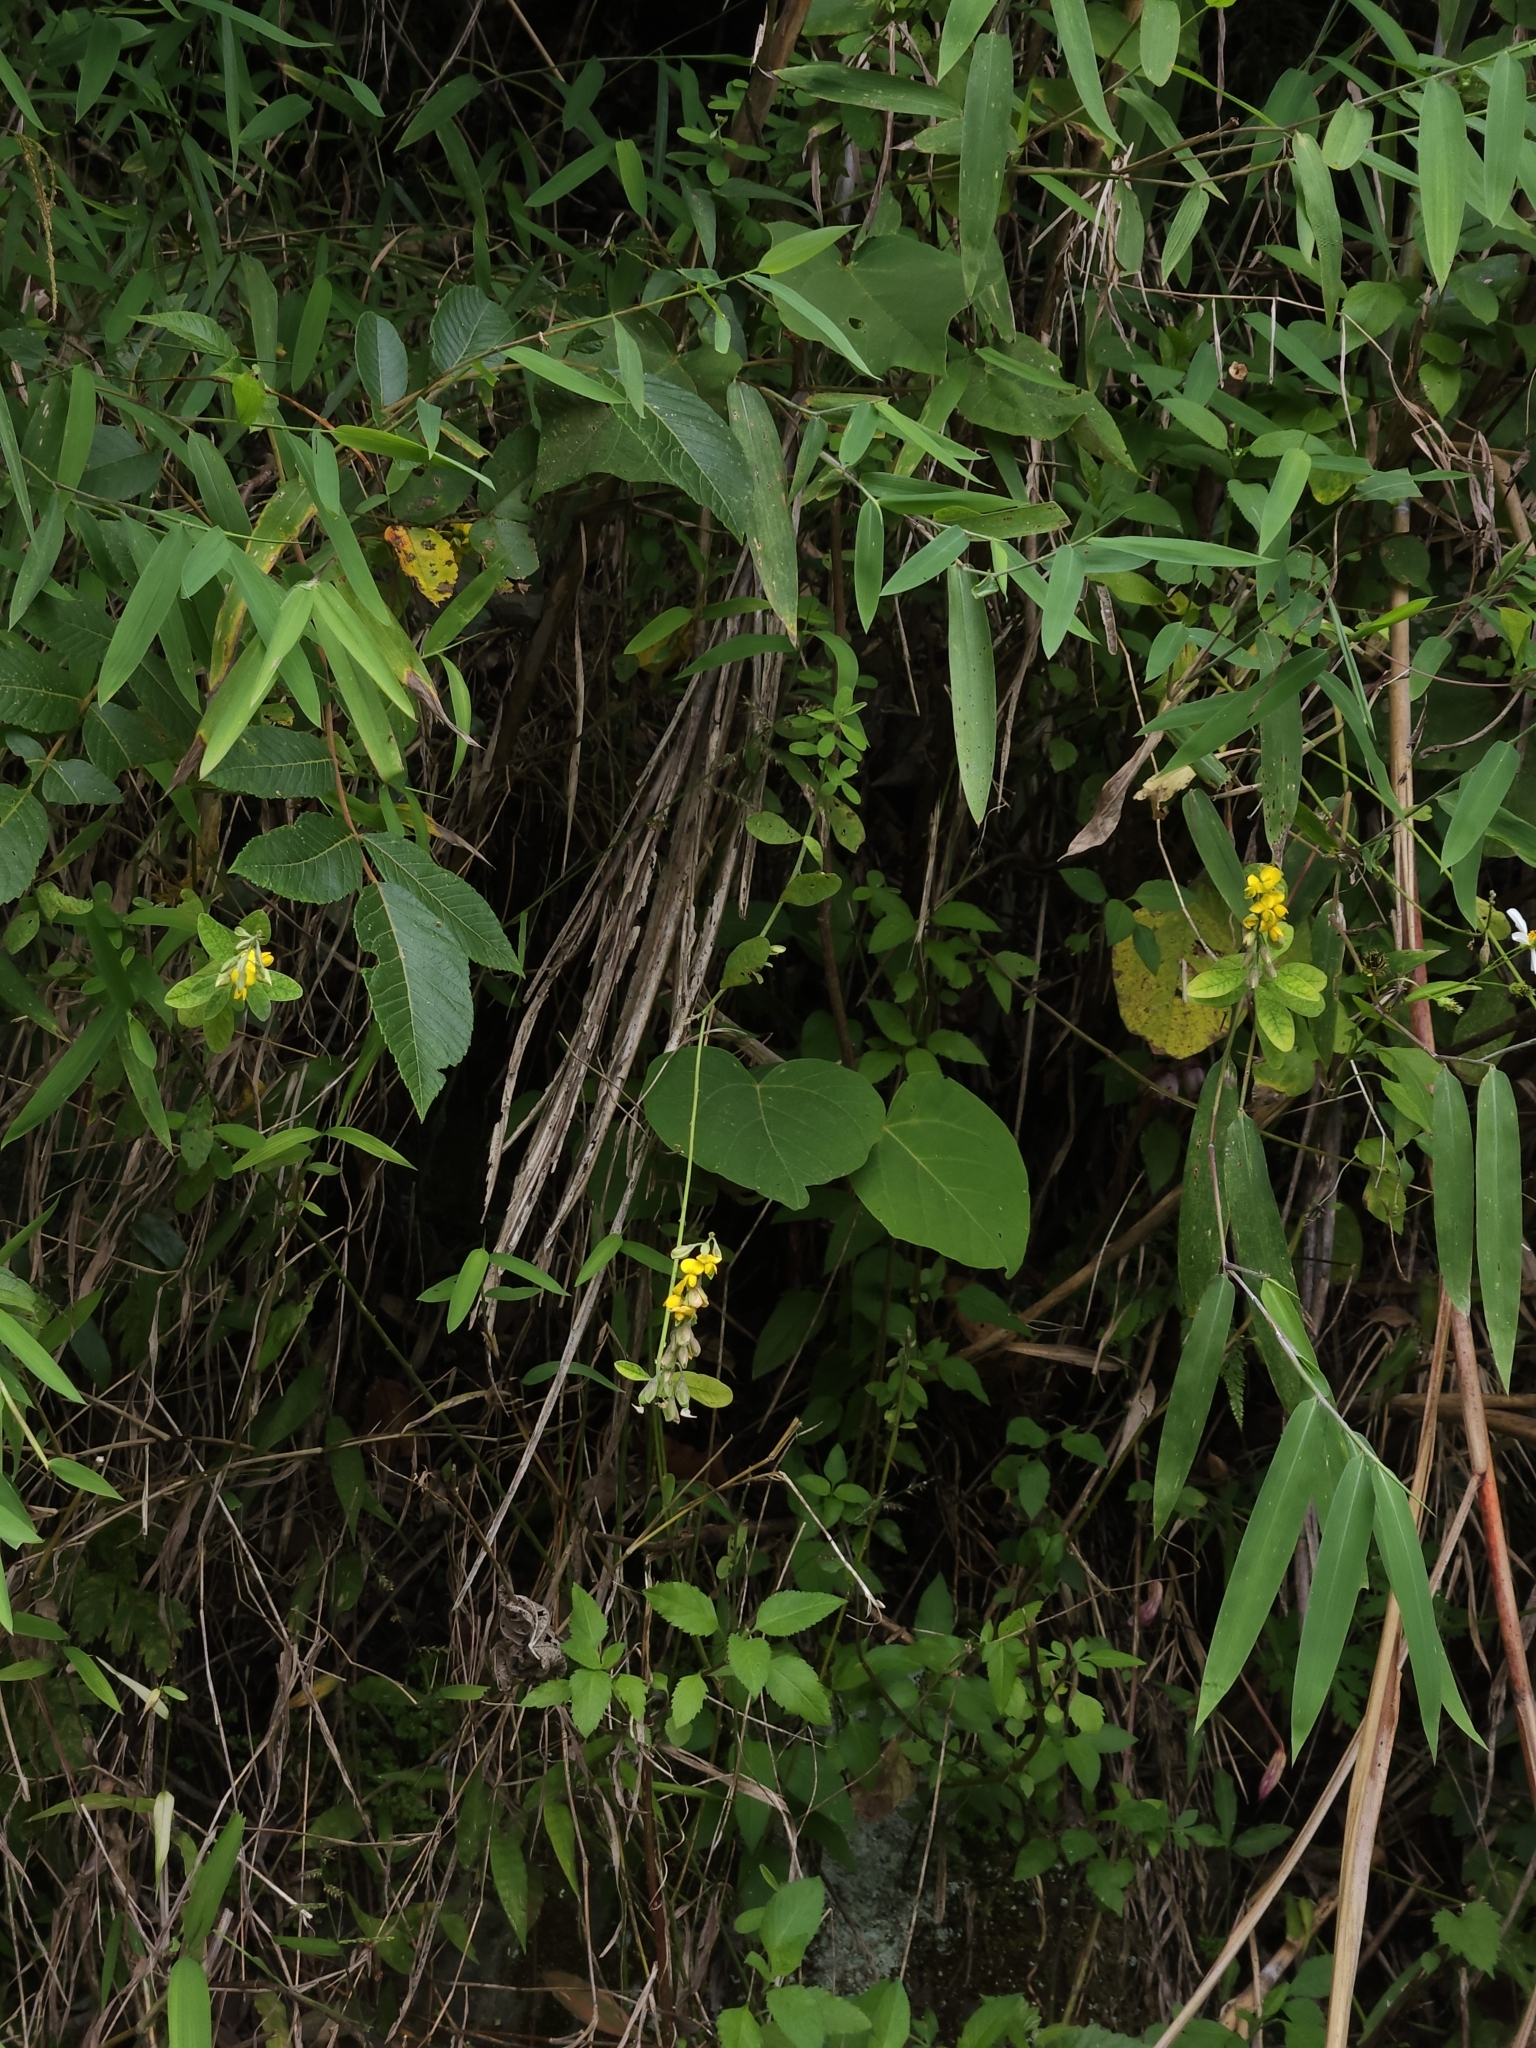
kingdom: Plantae
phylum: Tracheophyta
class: Magnoliopsida
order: Fabales
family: Fabaceae
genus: Crotalaria
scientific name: Crotalaria albida
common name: Taiwan crotalaria
